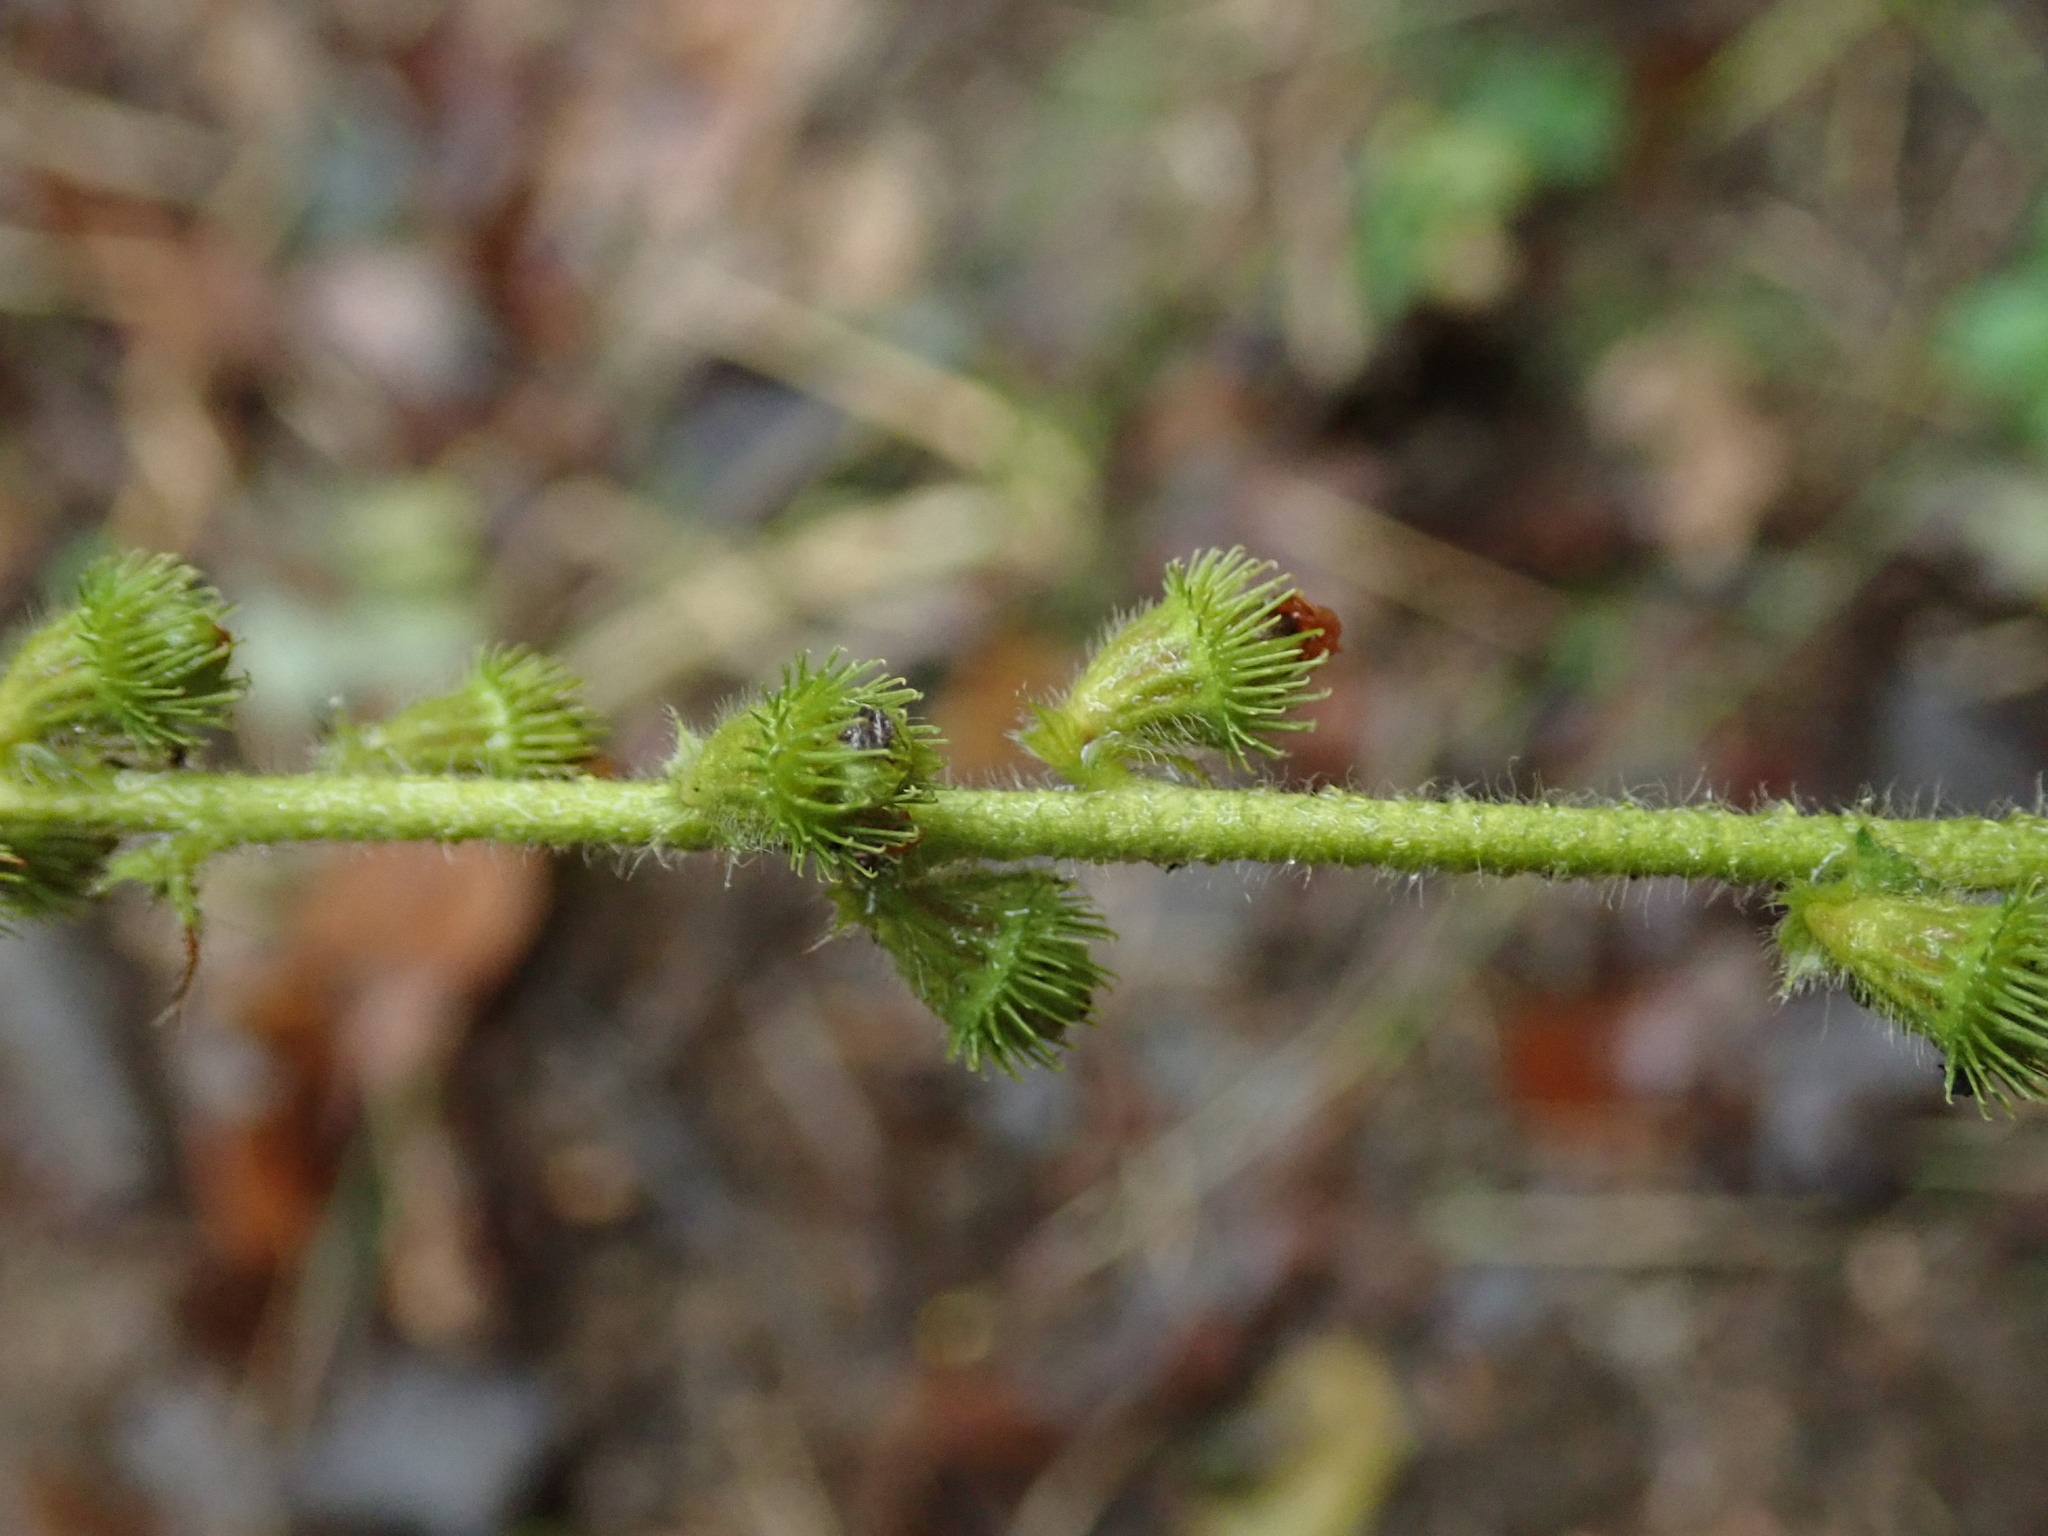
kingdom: Plantae
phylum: Tracheophyta
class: Magnoliopsida
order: Rosales
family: Rosaceae
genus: Agrimonia
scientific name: Agrimonia eupatoria
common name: Agrimony
